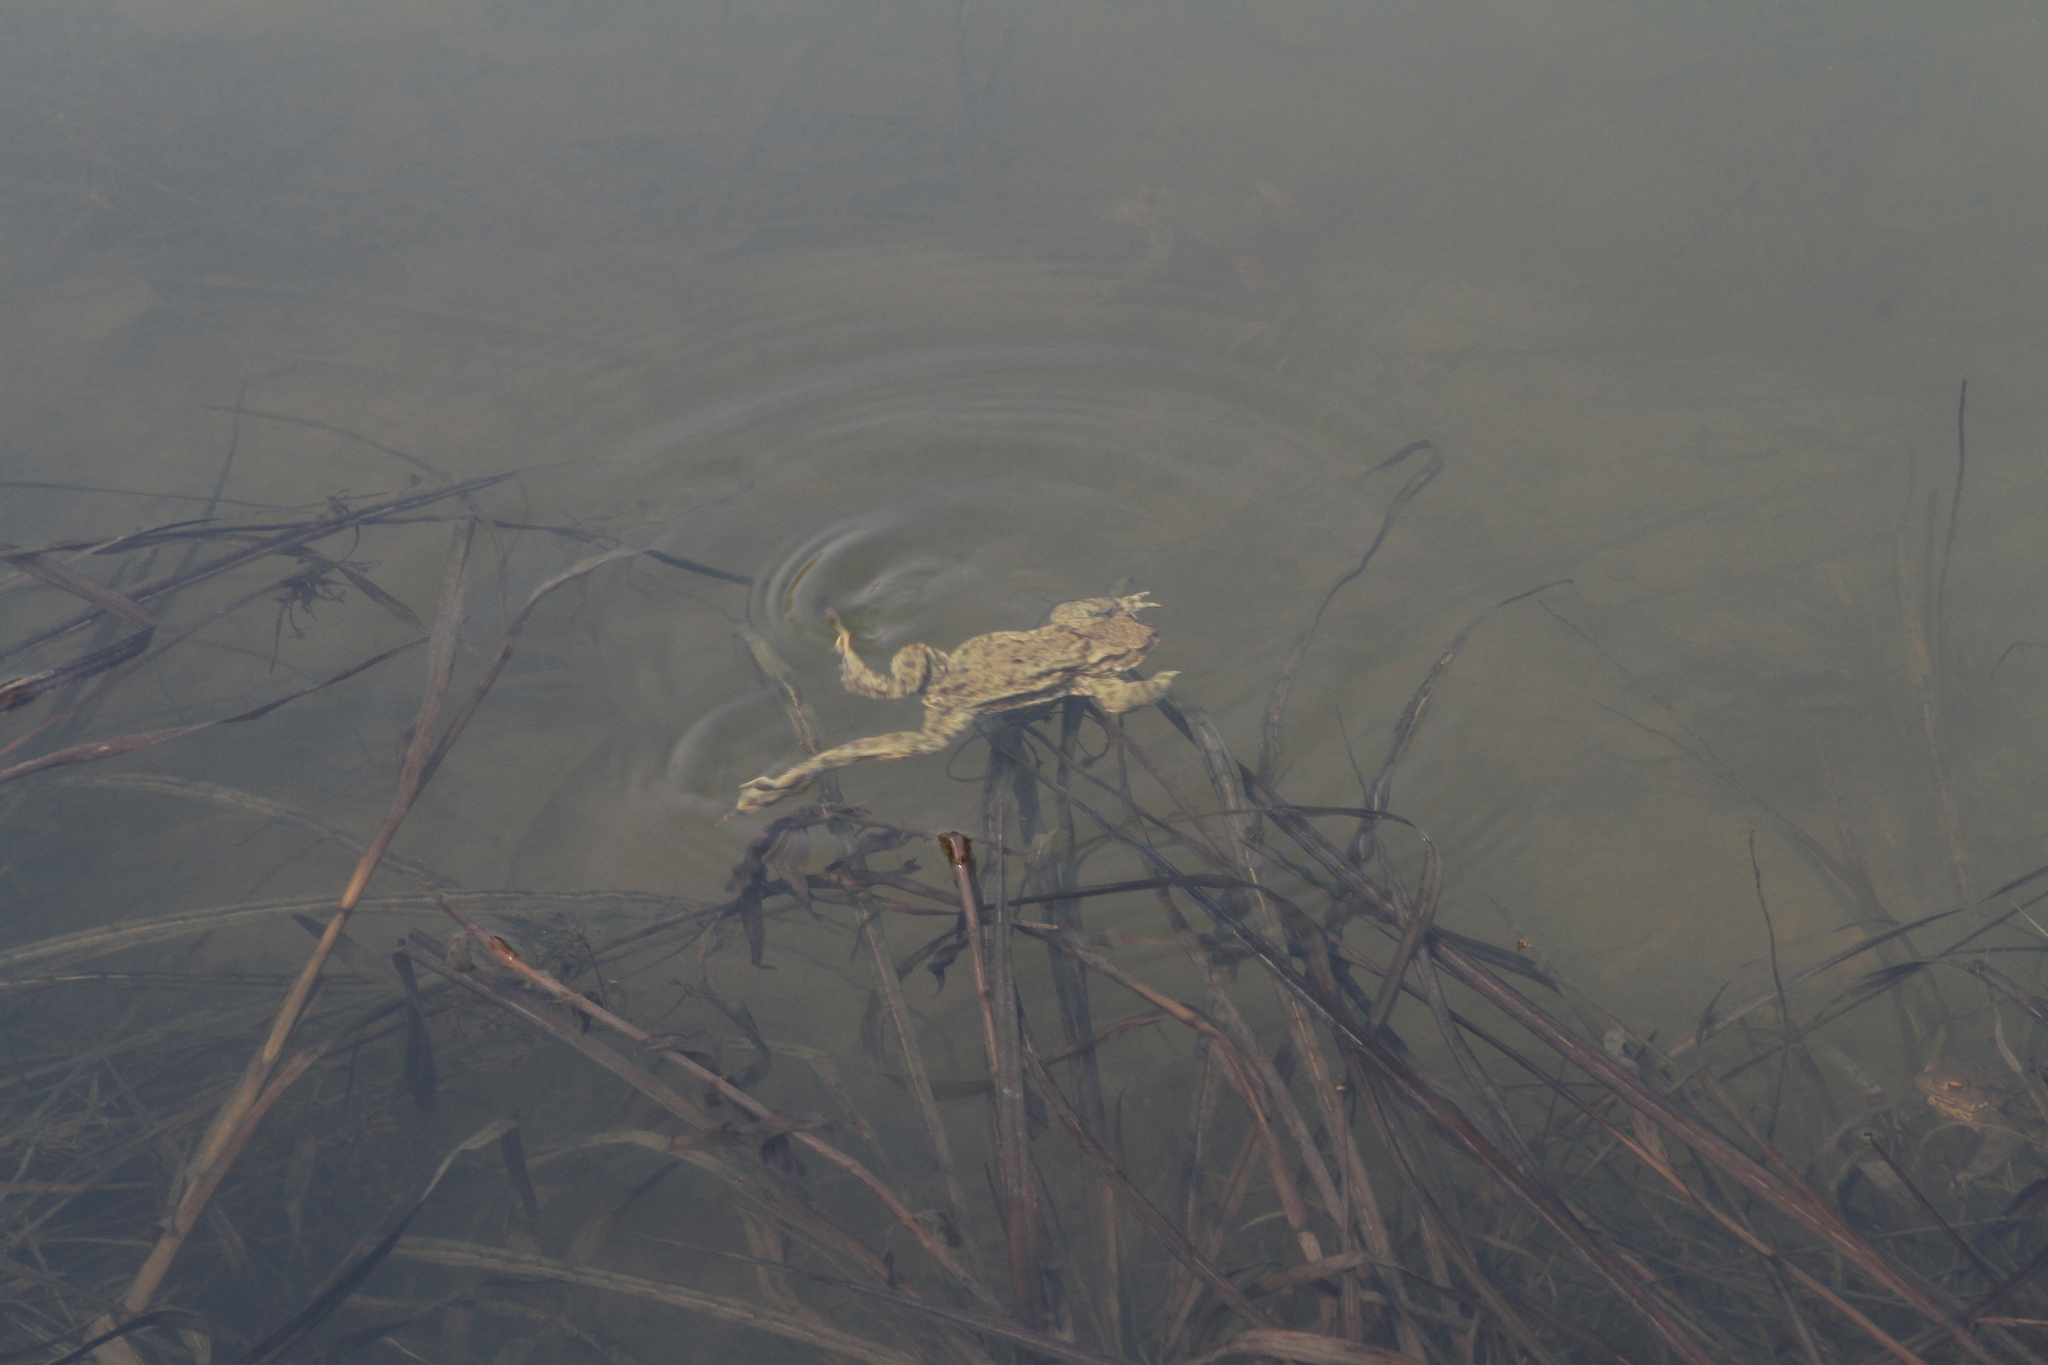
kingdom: Animalia
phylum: Chordata
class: Amphibia
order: Anura
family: Bufonidae
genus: Bufo
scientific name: Bufo bufo
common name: Common toad
